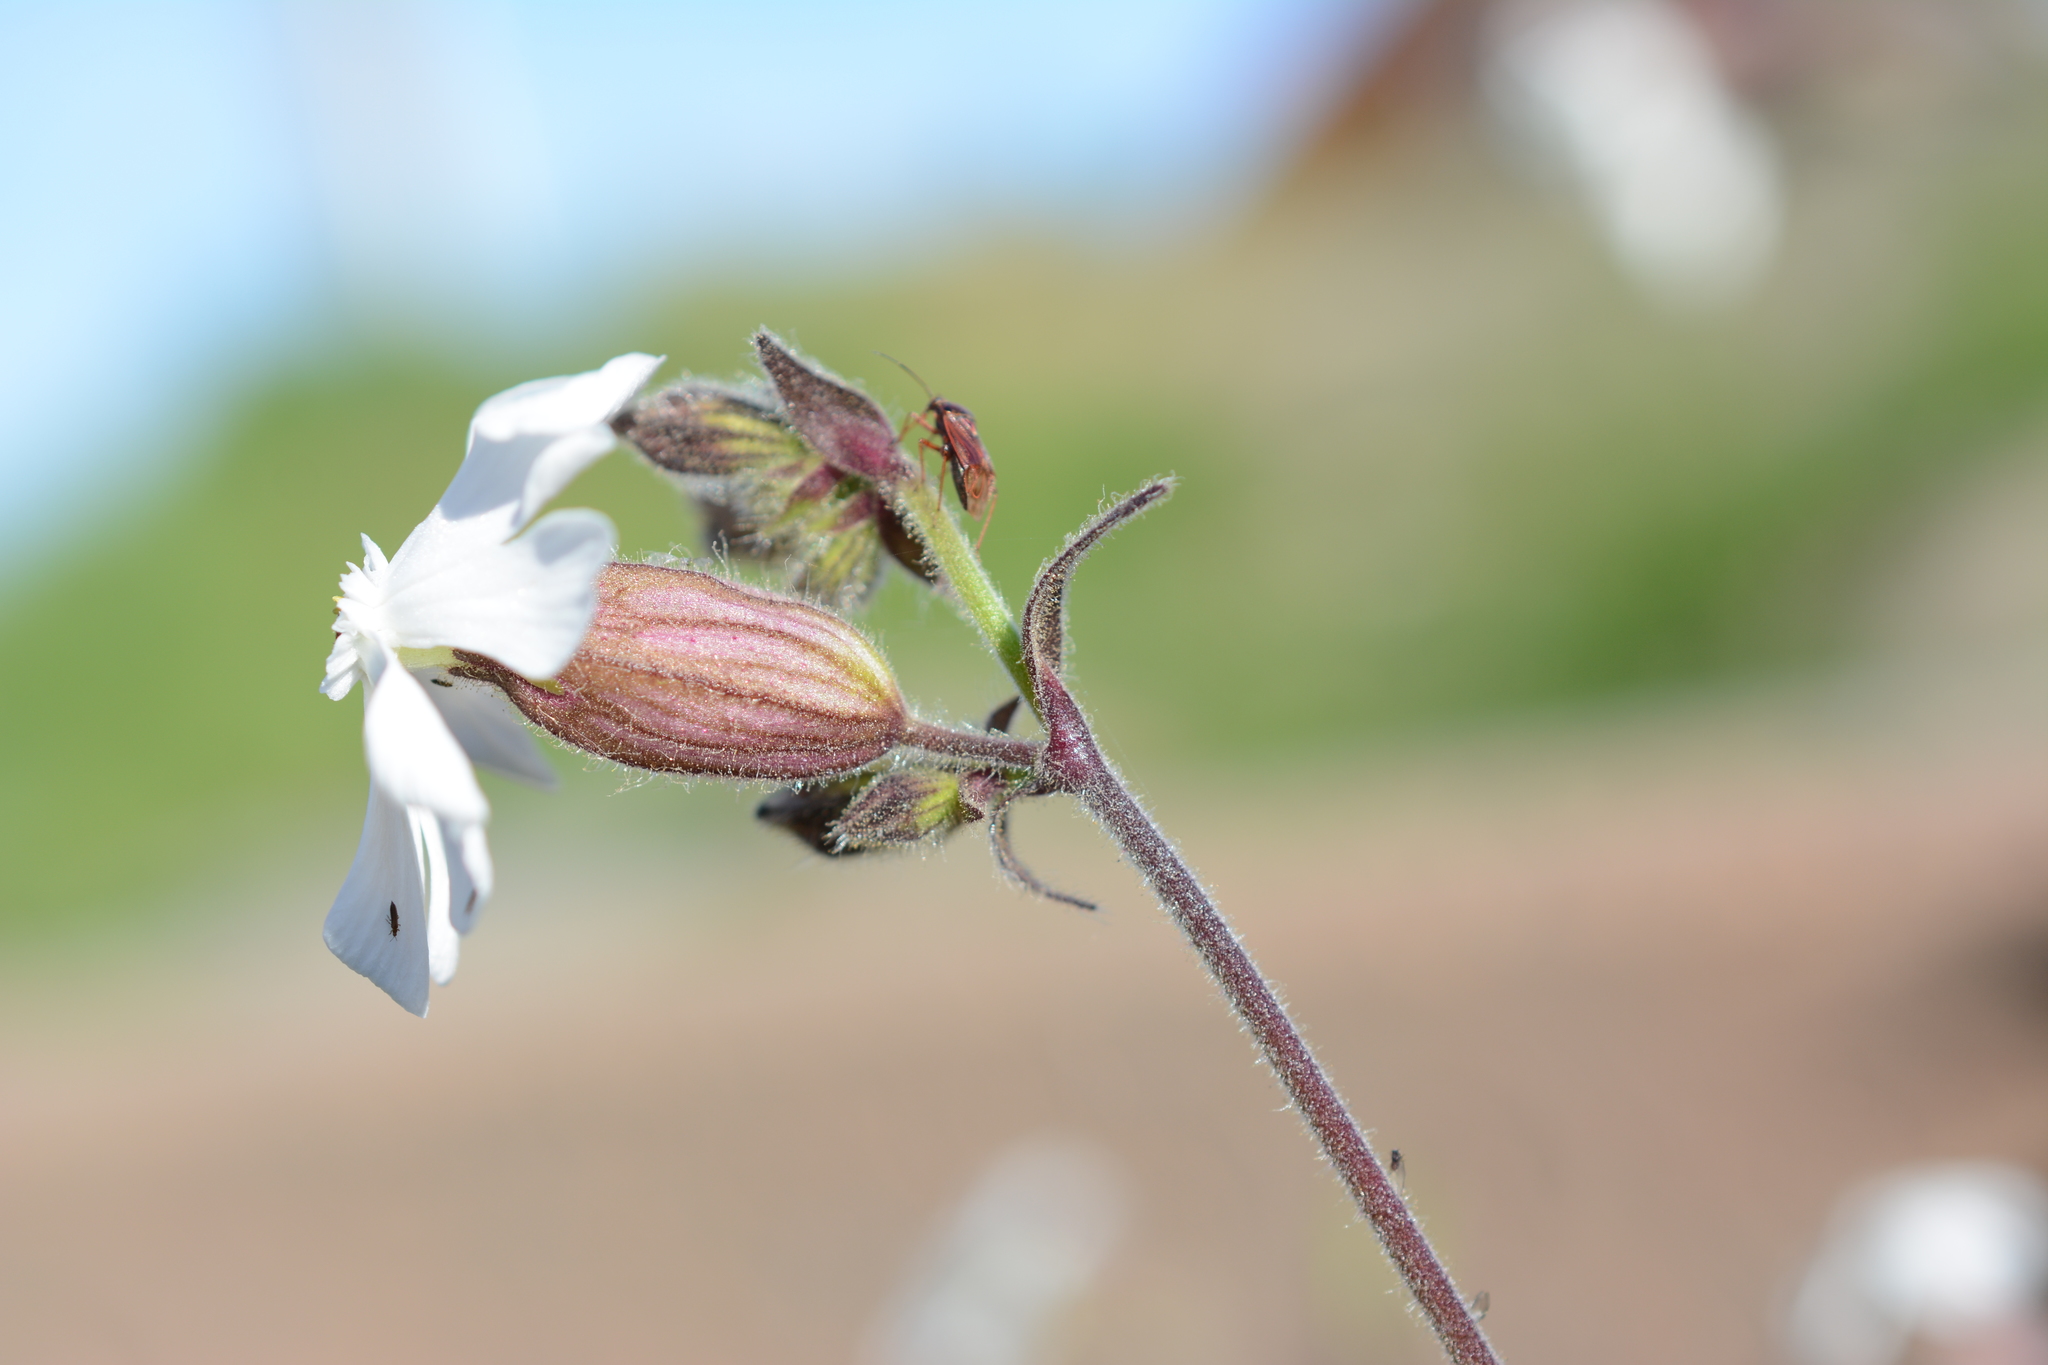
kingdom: Plantae
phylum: Tracheophyta
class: Magnoliopsida
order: Caryophyllales
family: Caryophyllaceae
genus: Silene
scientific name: Silene latifolia
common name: White campion
